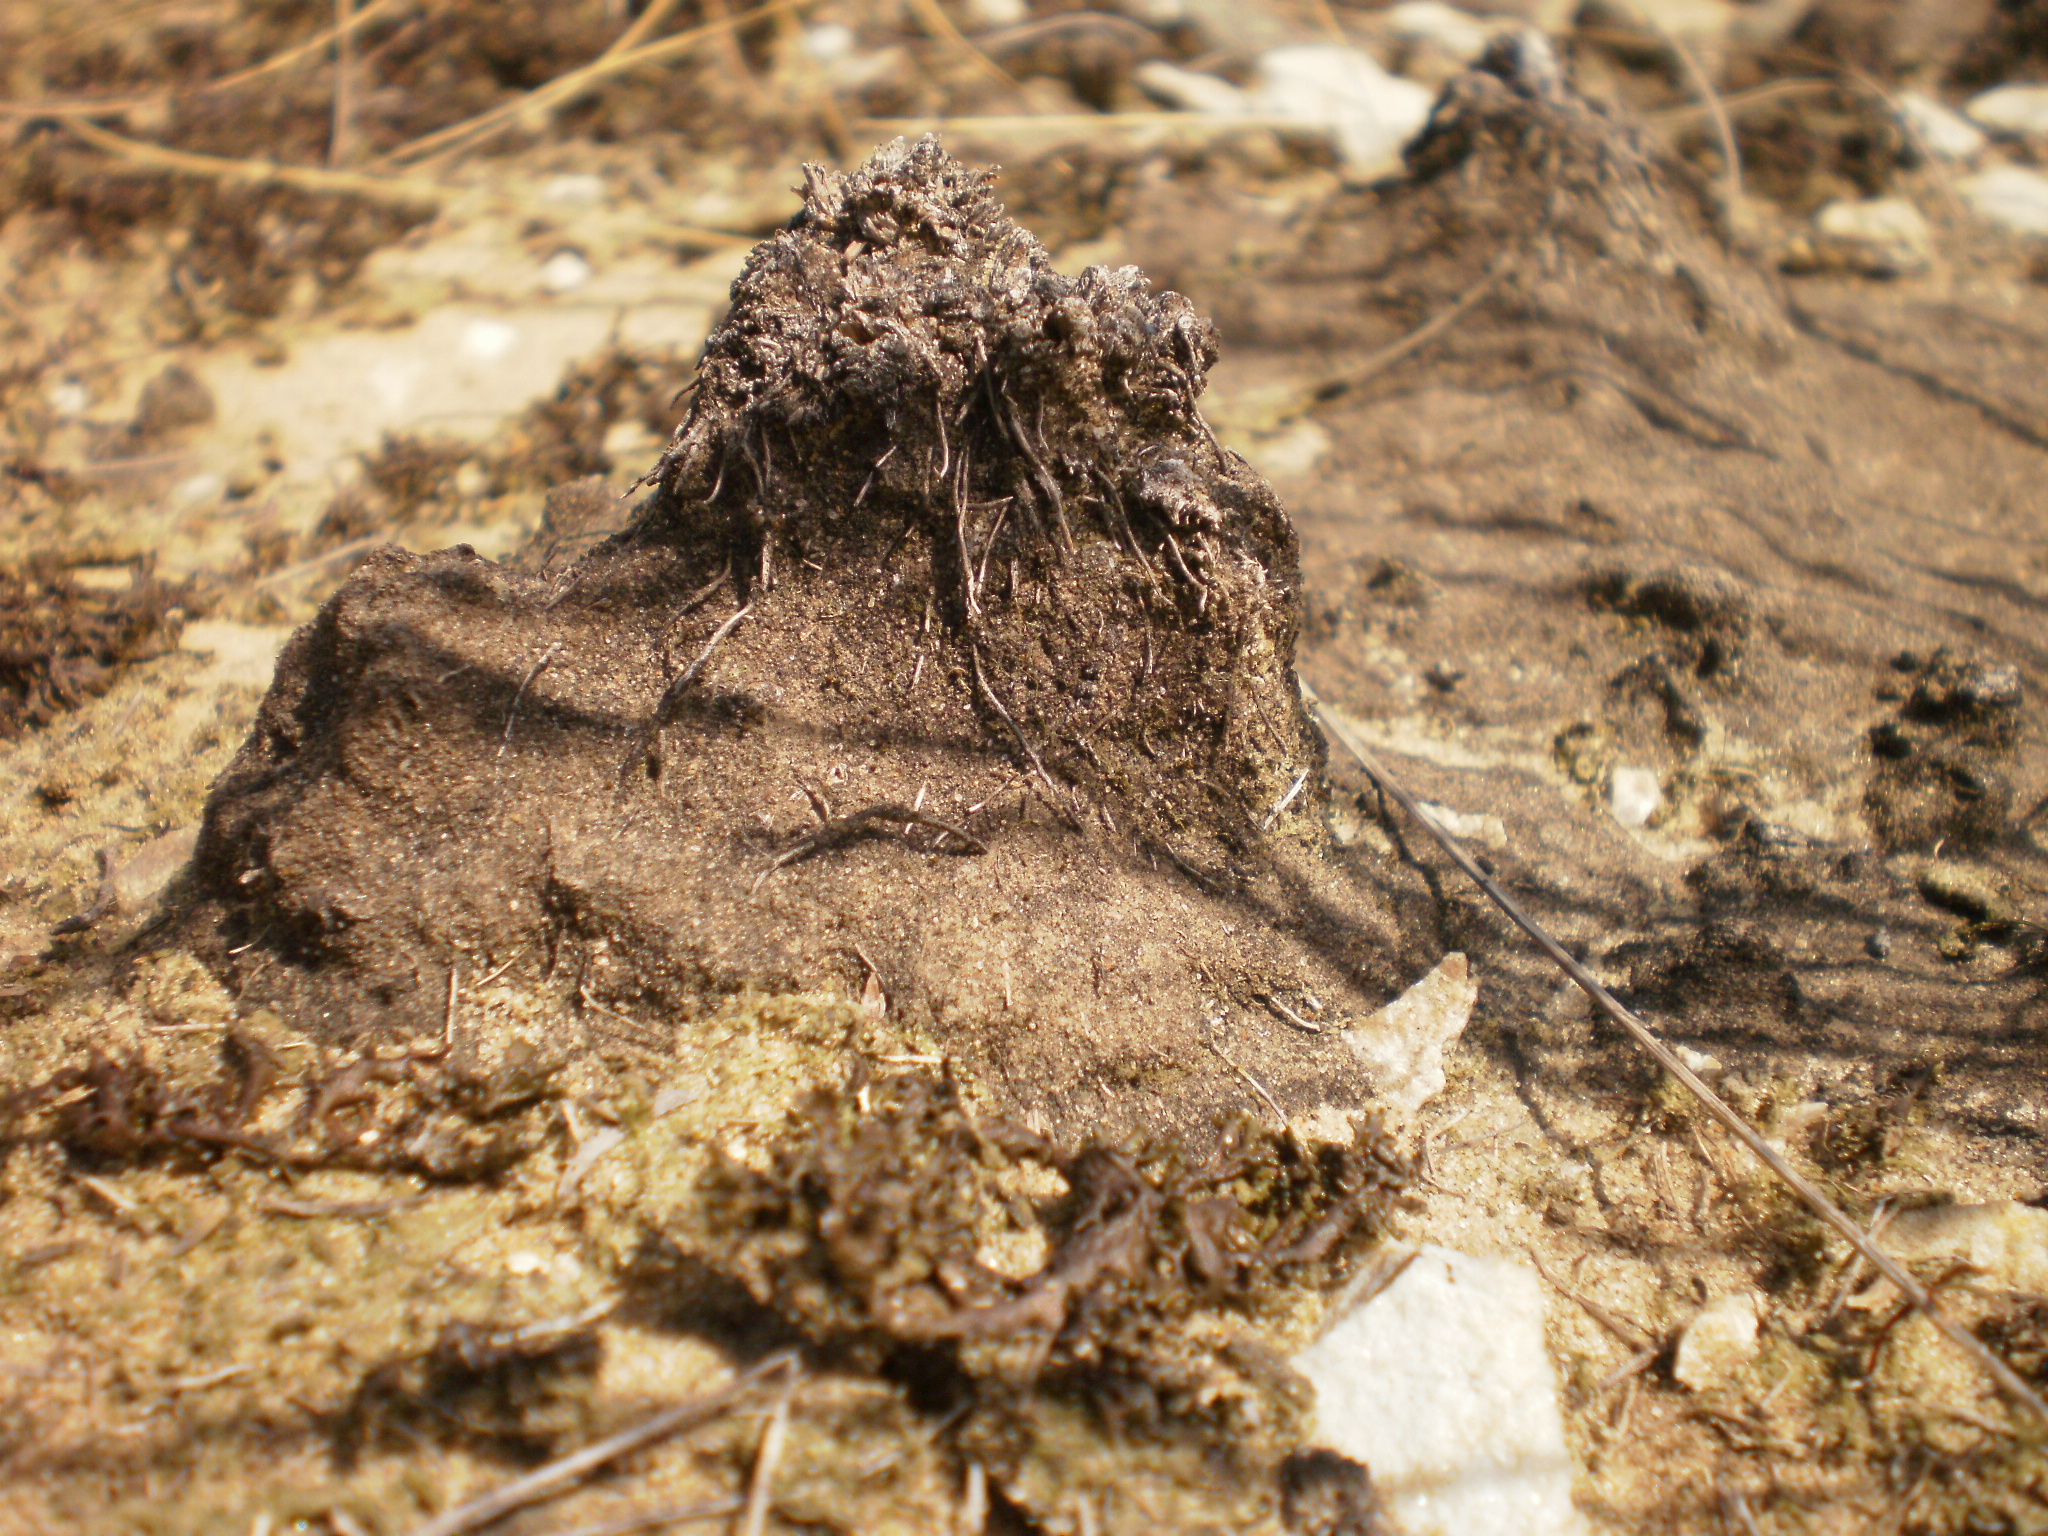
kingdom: Fungi
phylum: Basidiomycota
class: Agaricomycetes
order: Thelephorales
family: Thelephoraceae
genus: Thelephora
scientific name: Thelephora terrestris
